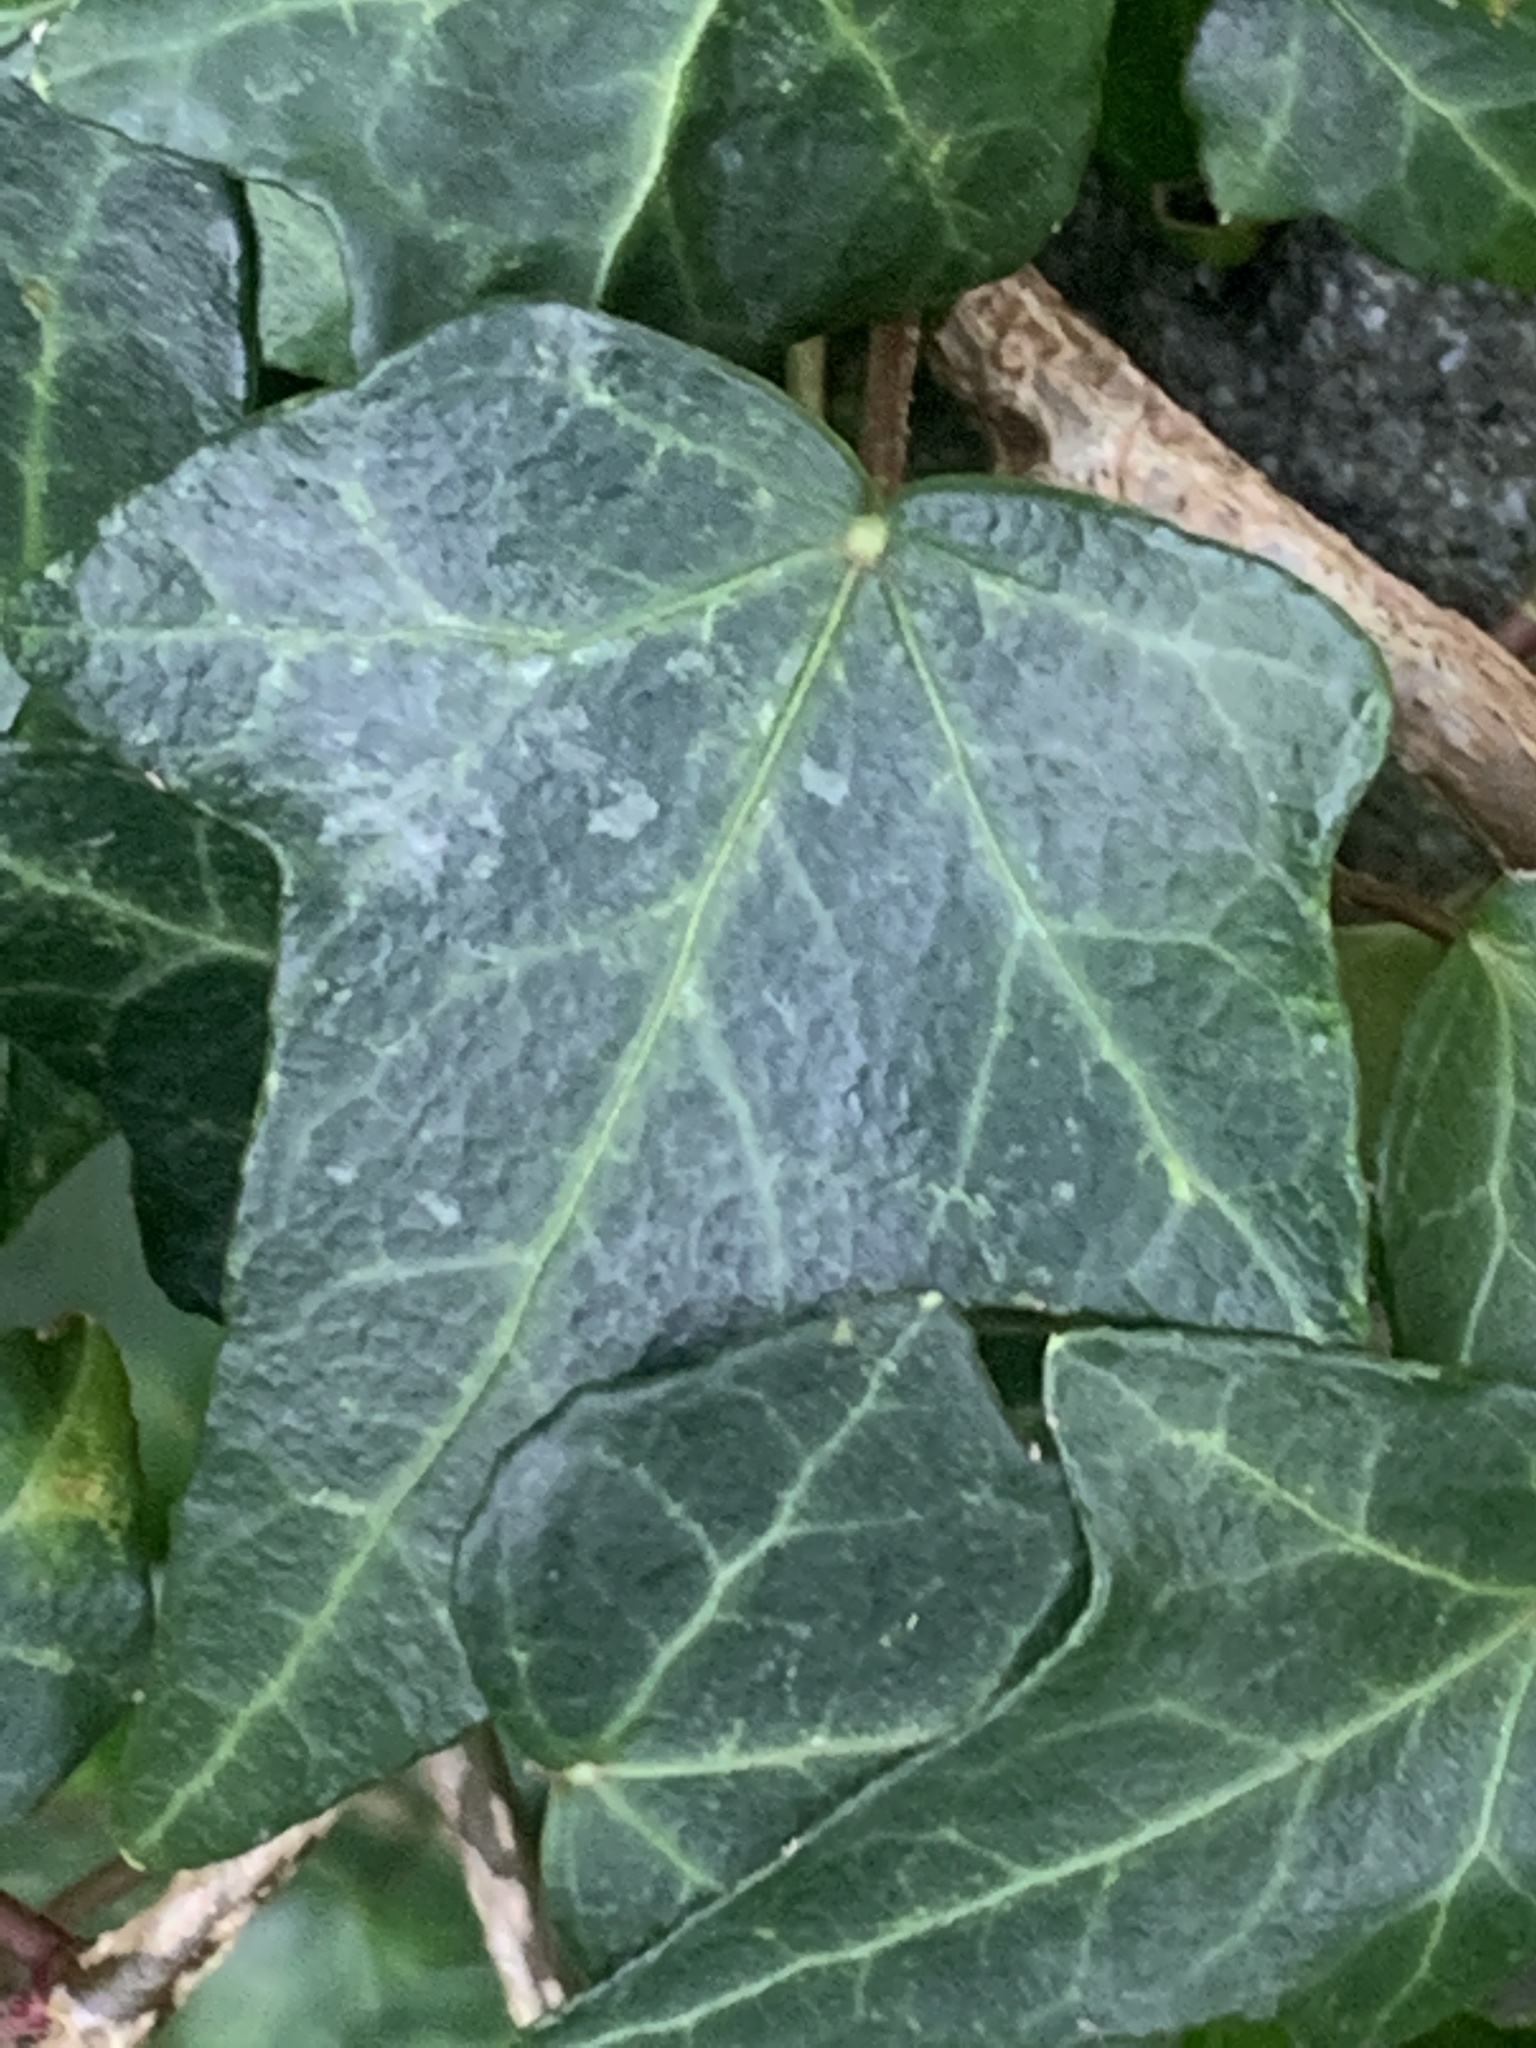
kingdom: Plantae
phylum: Tracheophyta
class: Magnoliopsida
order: Apiales
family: Araliaceae
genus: Hedera
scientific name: Hedera helix
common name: Ivy
